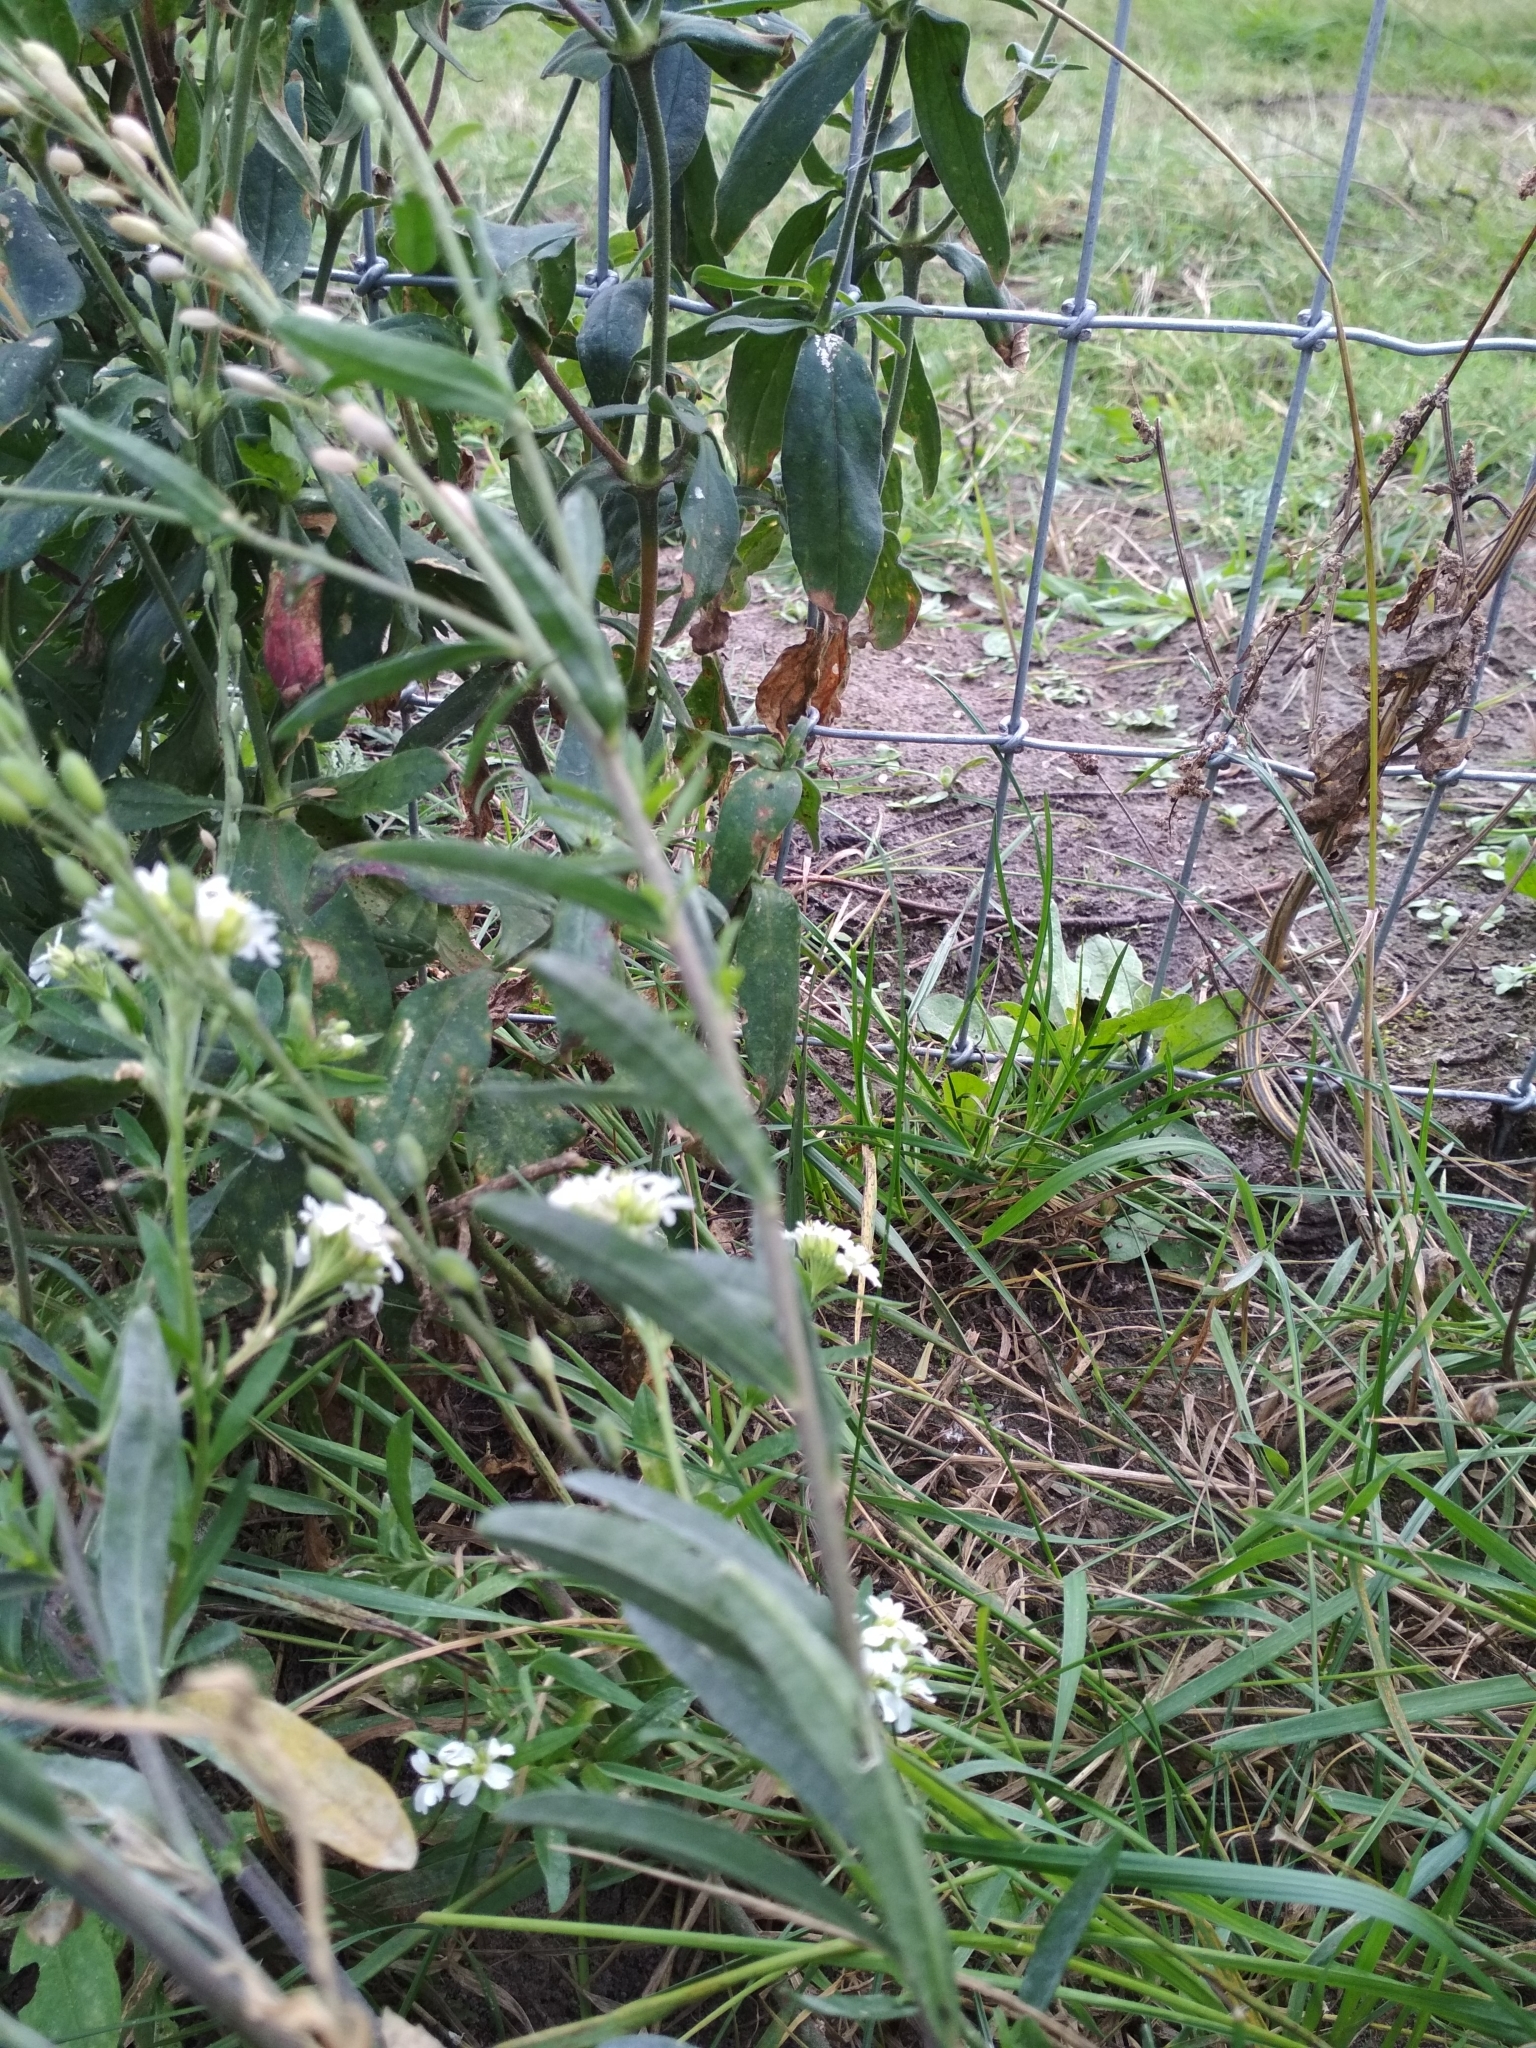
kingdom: Plantae
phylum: Tracheophyta
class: Magnoliopsida
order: Brassicales
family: Brassicaceae
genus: Berteroa
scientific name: Berteroa incana
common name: Hoary alison
